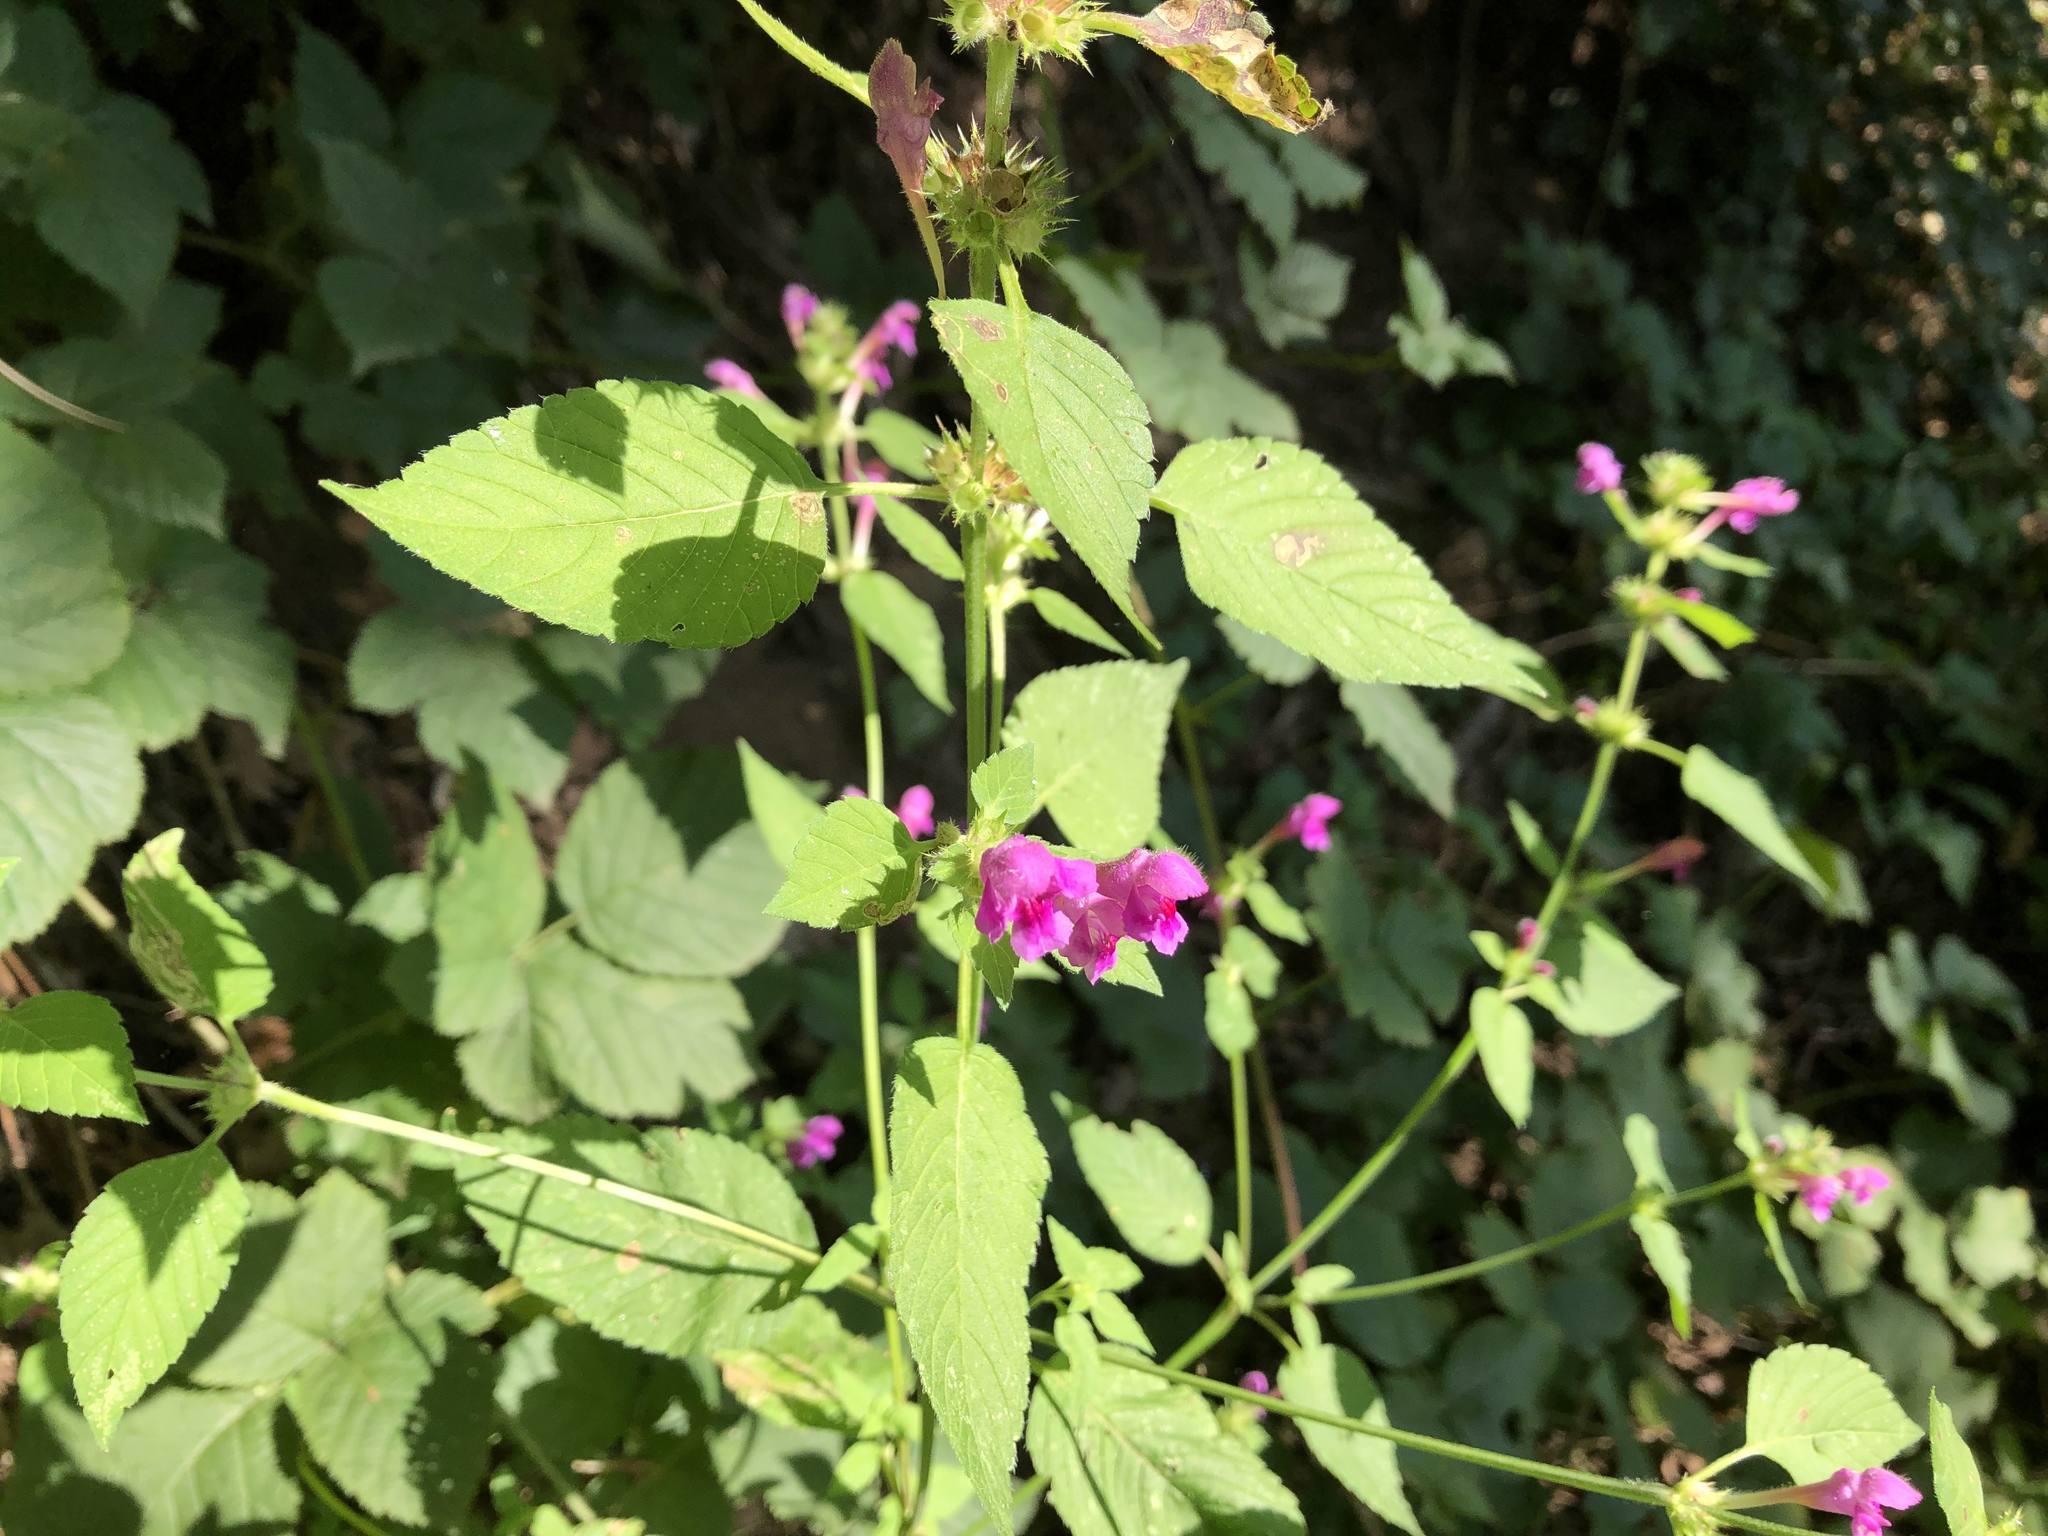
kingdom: Plantae
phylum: Tracheophyta
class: Magnoliopsida
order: Lamiales
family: Lamiaceae
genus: Galeopsis
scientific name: Galeopsis pubescens
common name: Downy hemp-nettle
